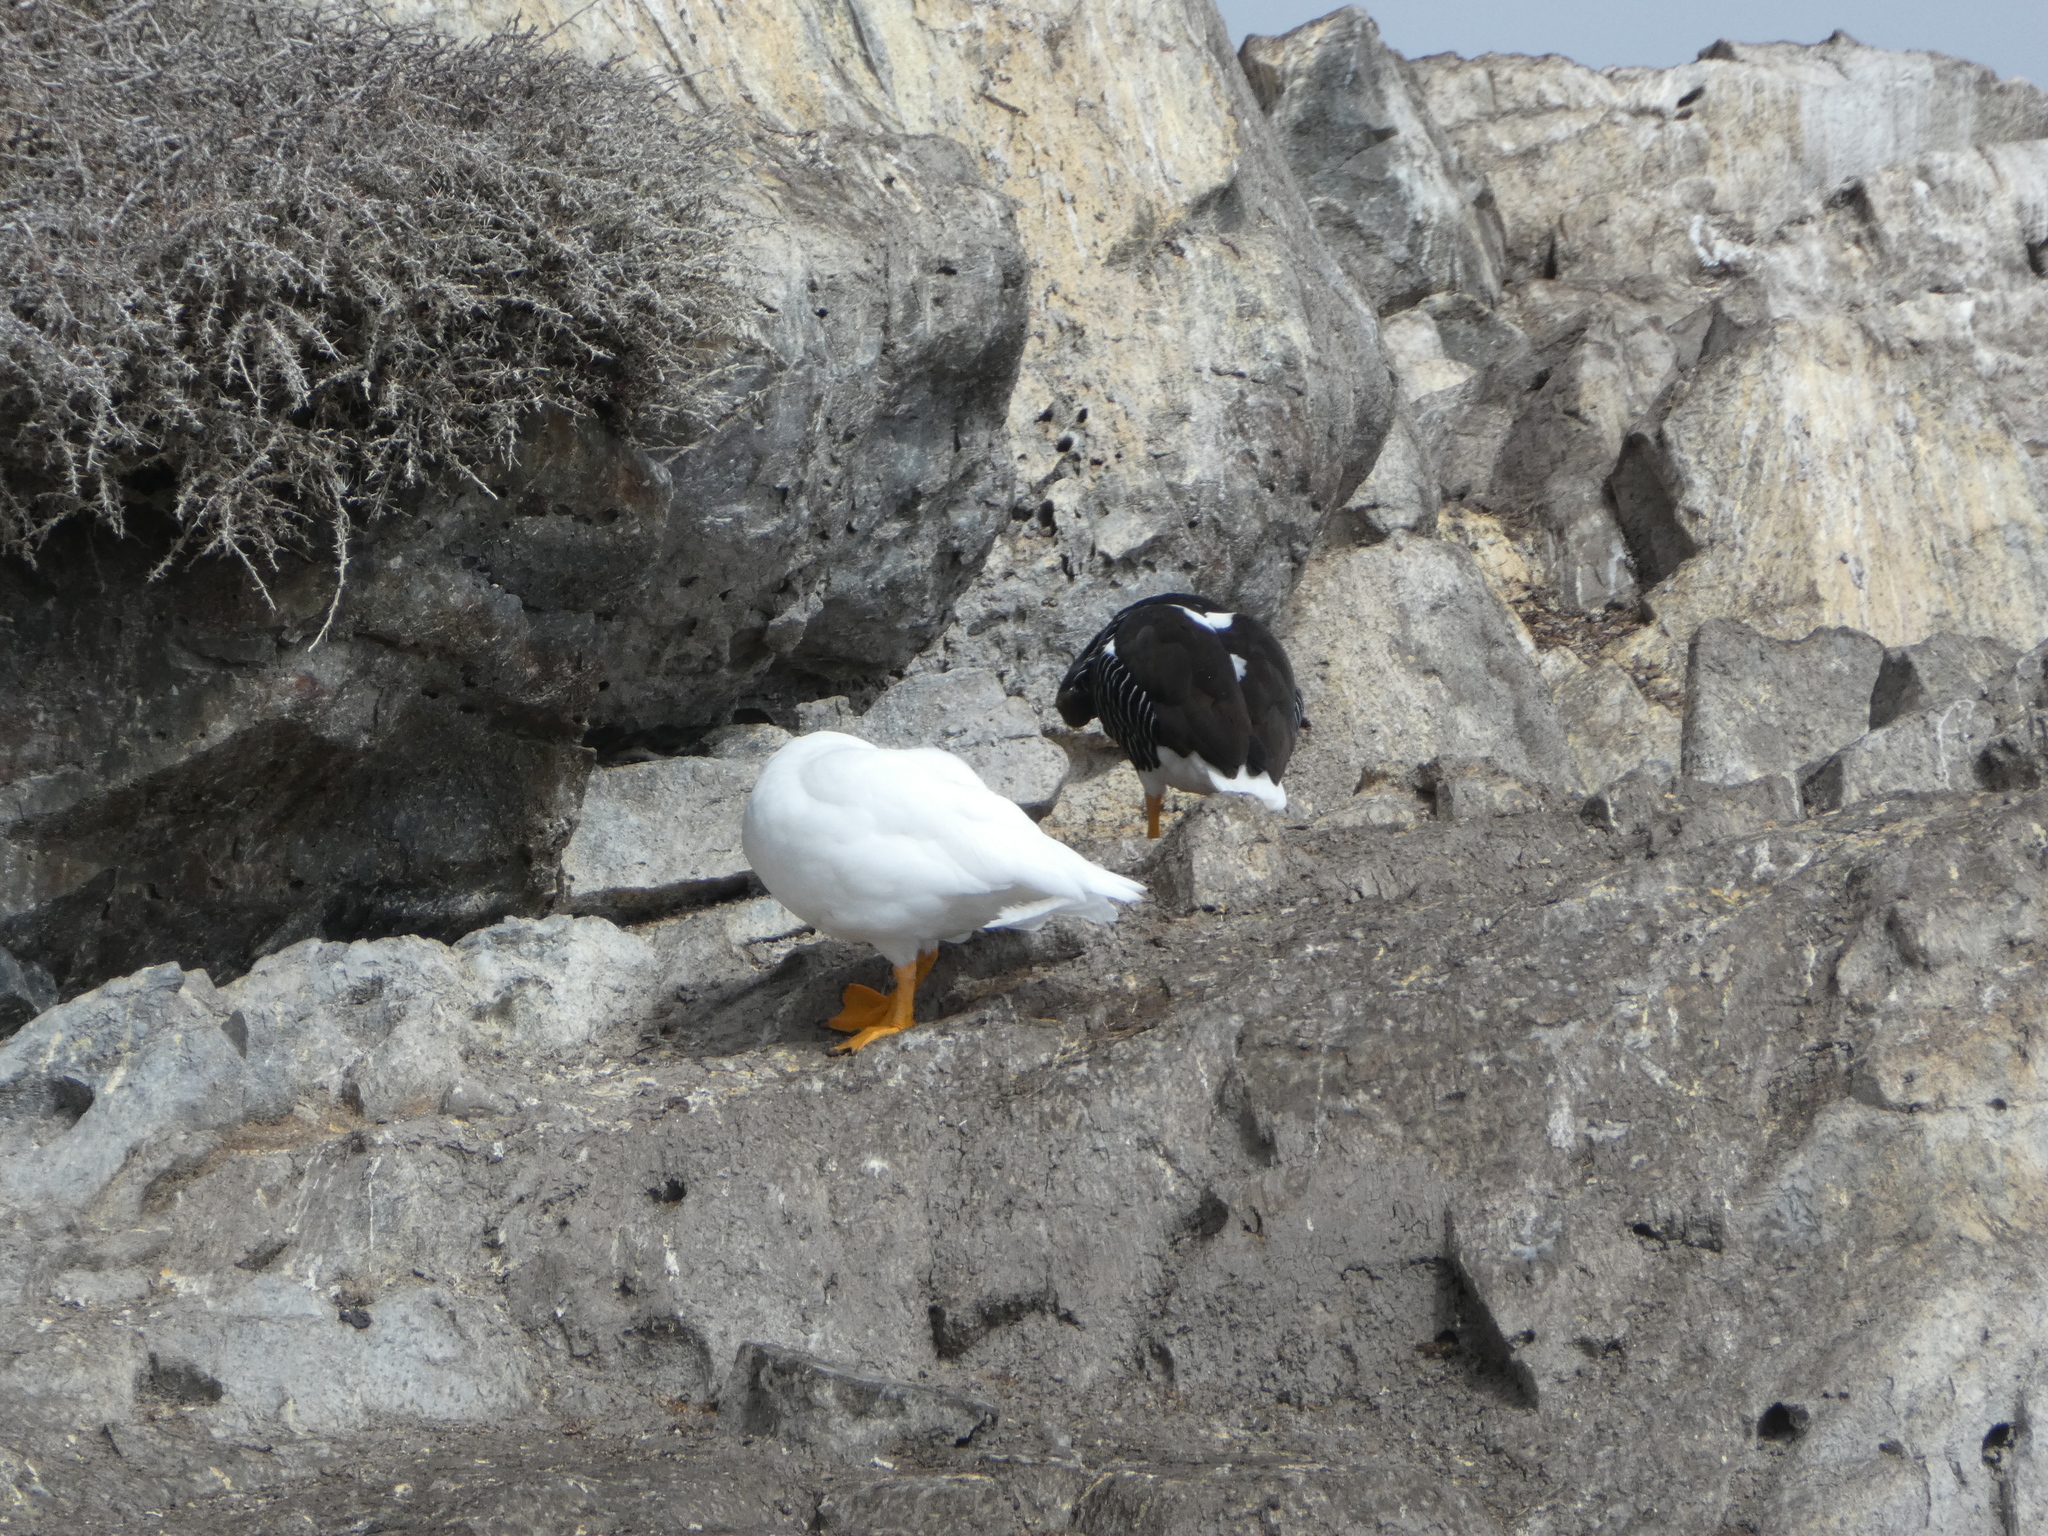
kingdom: Animalia
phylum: Chordata
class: Aves
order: Anseriformes
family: Anatidae
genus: Chloephaga
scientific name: Chloephaga hybrida
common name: Kelp goose
